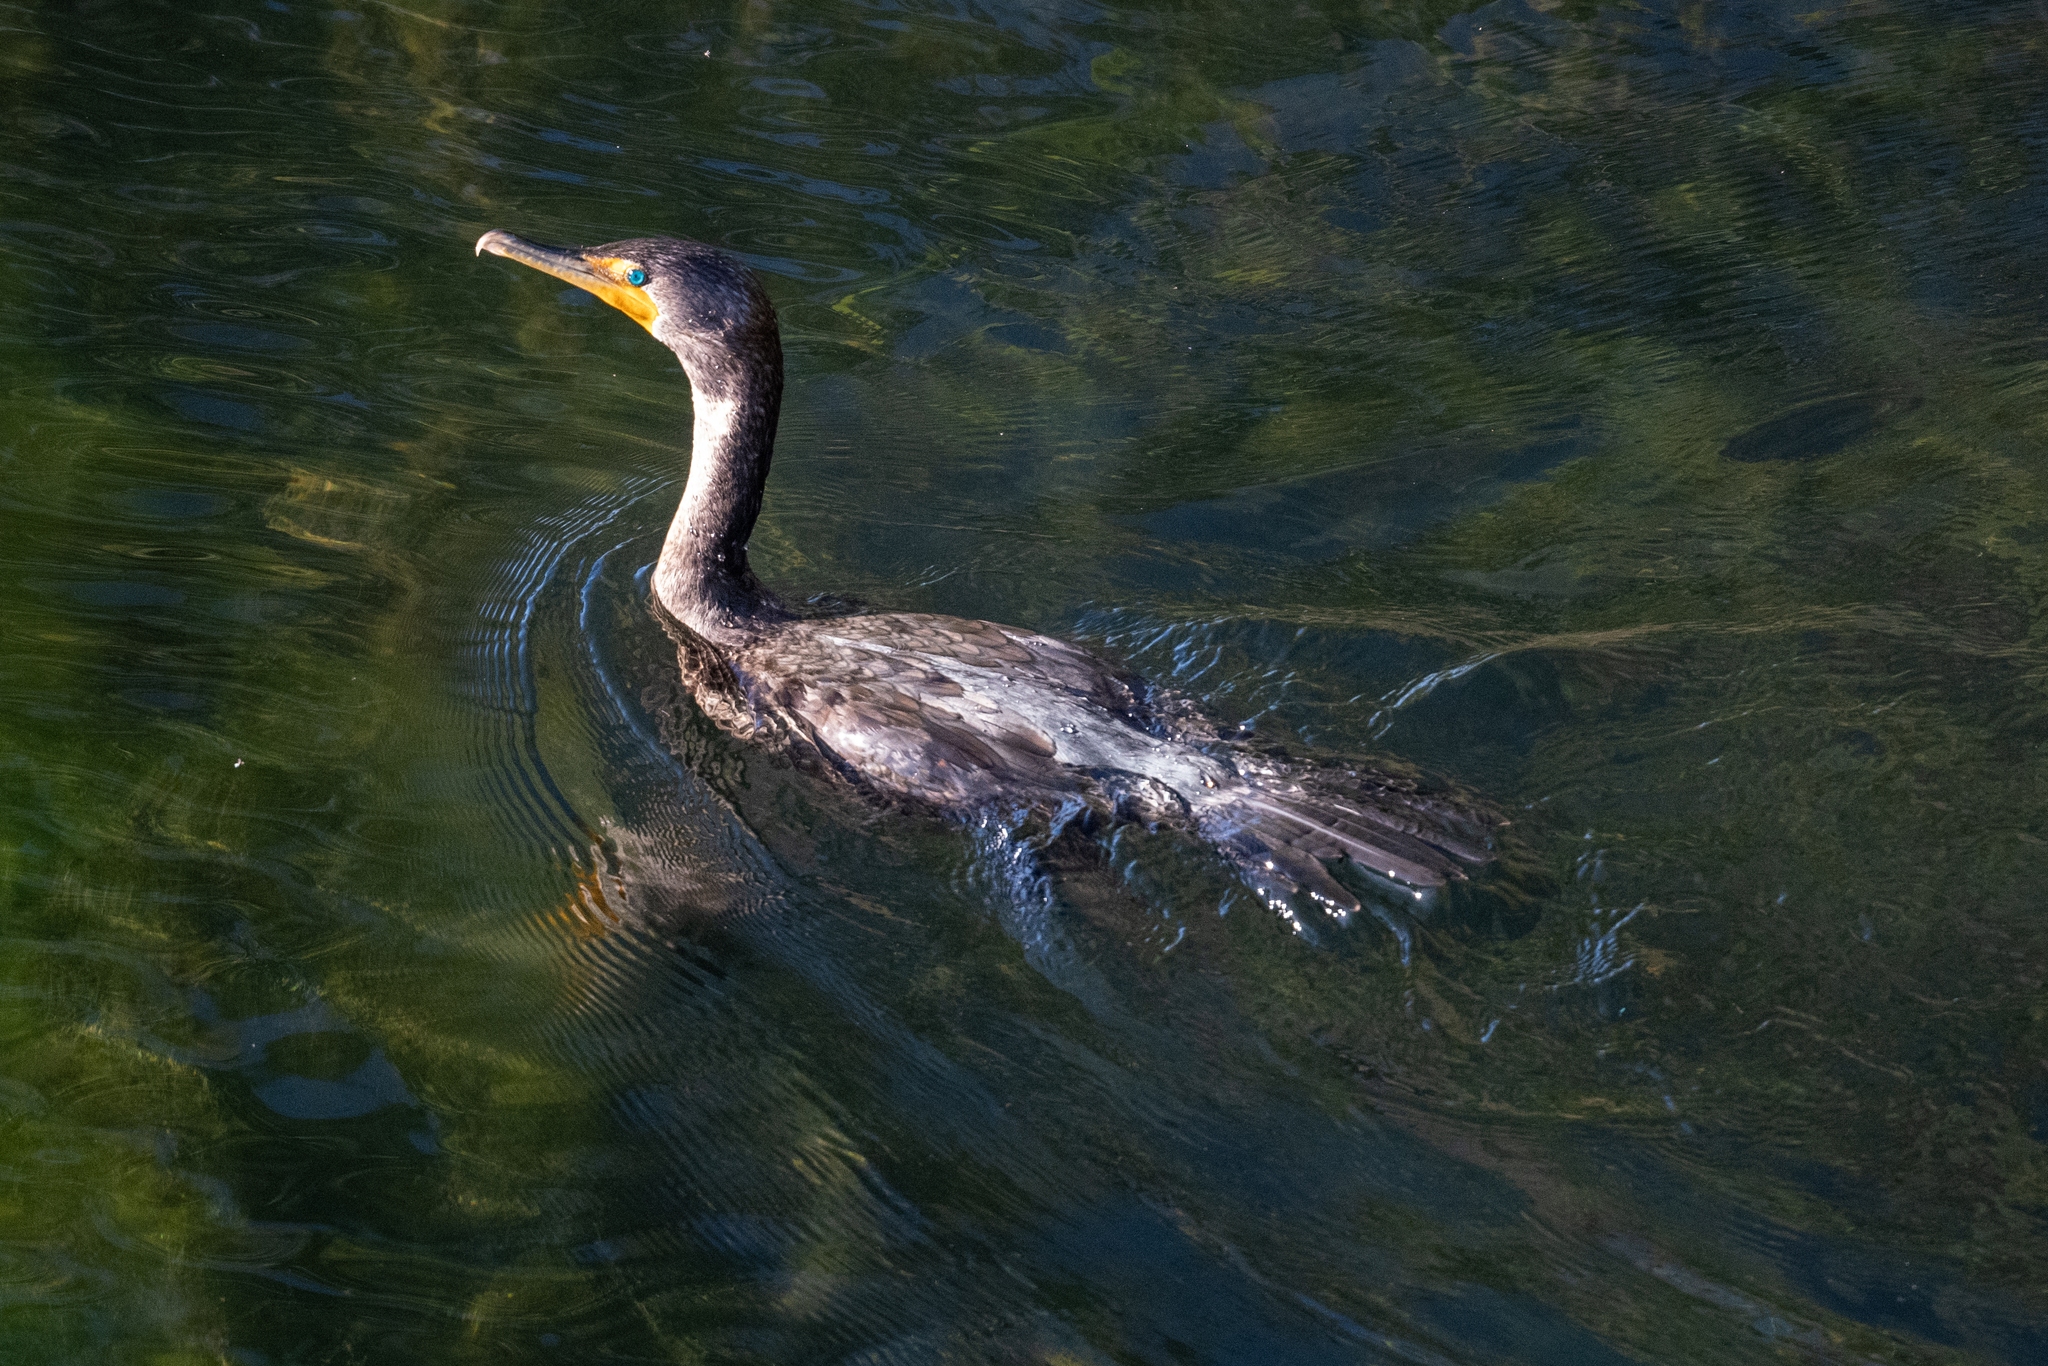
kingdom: Animalia
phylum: Chordata
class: Aves
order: Suliformes
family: Phalacrocoracidae
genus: Phalacrocorax
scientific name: Phalacrocorax auritus
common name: Double-crested cormorant
